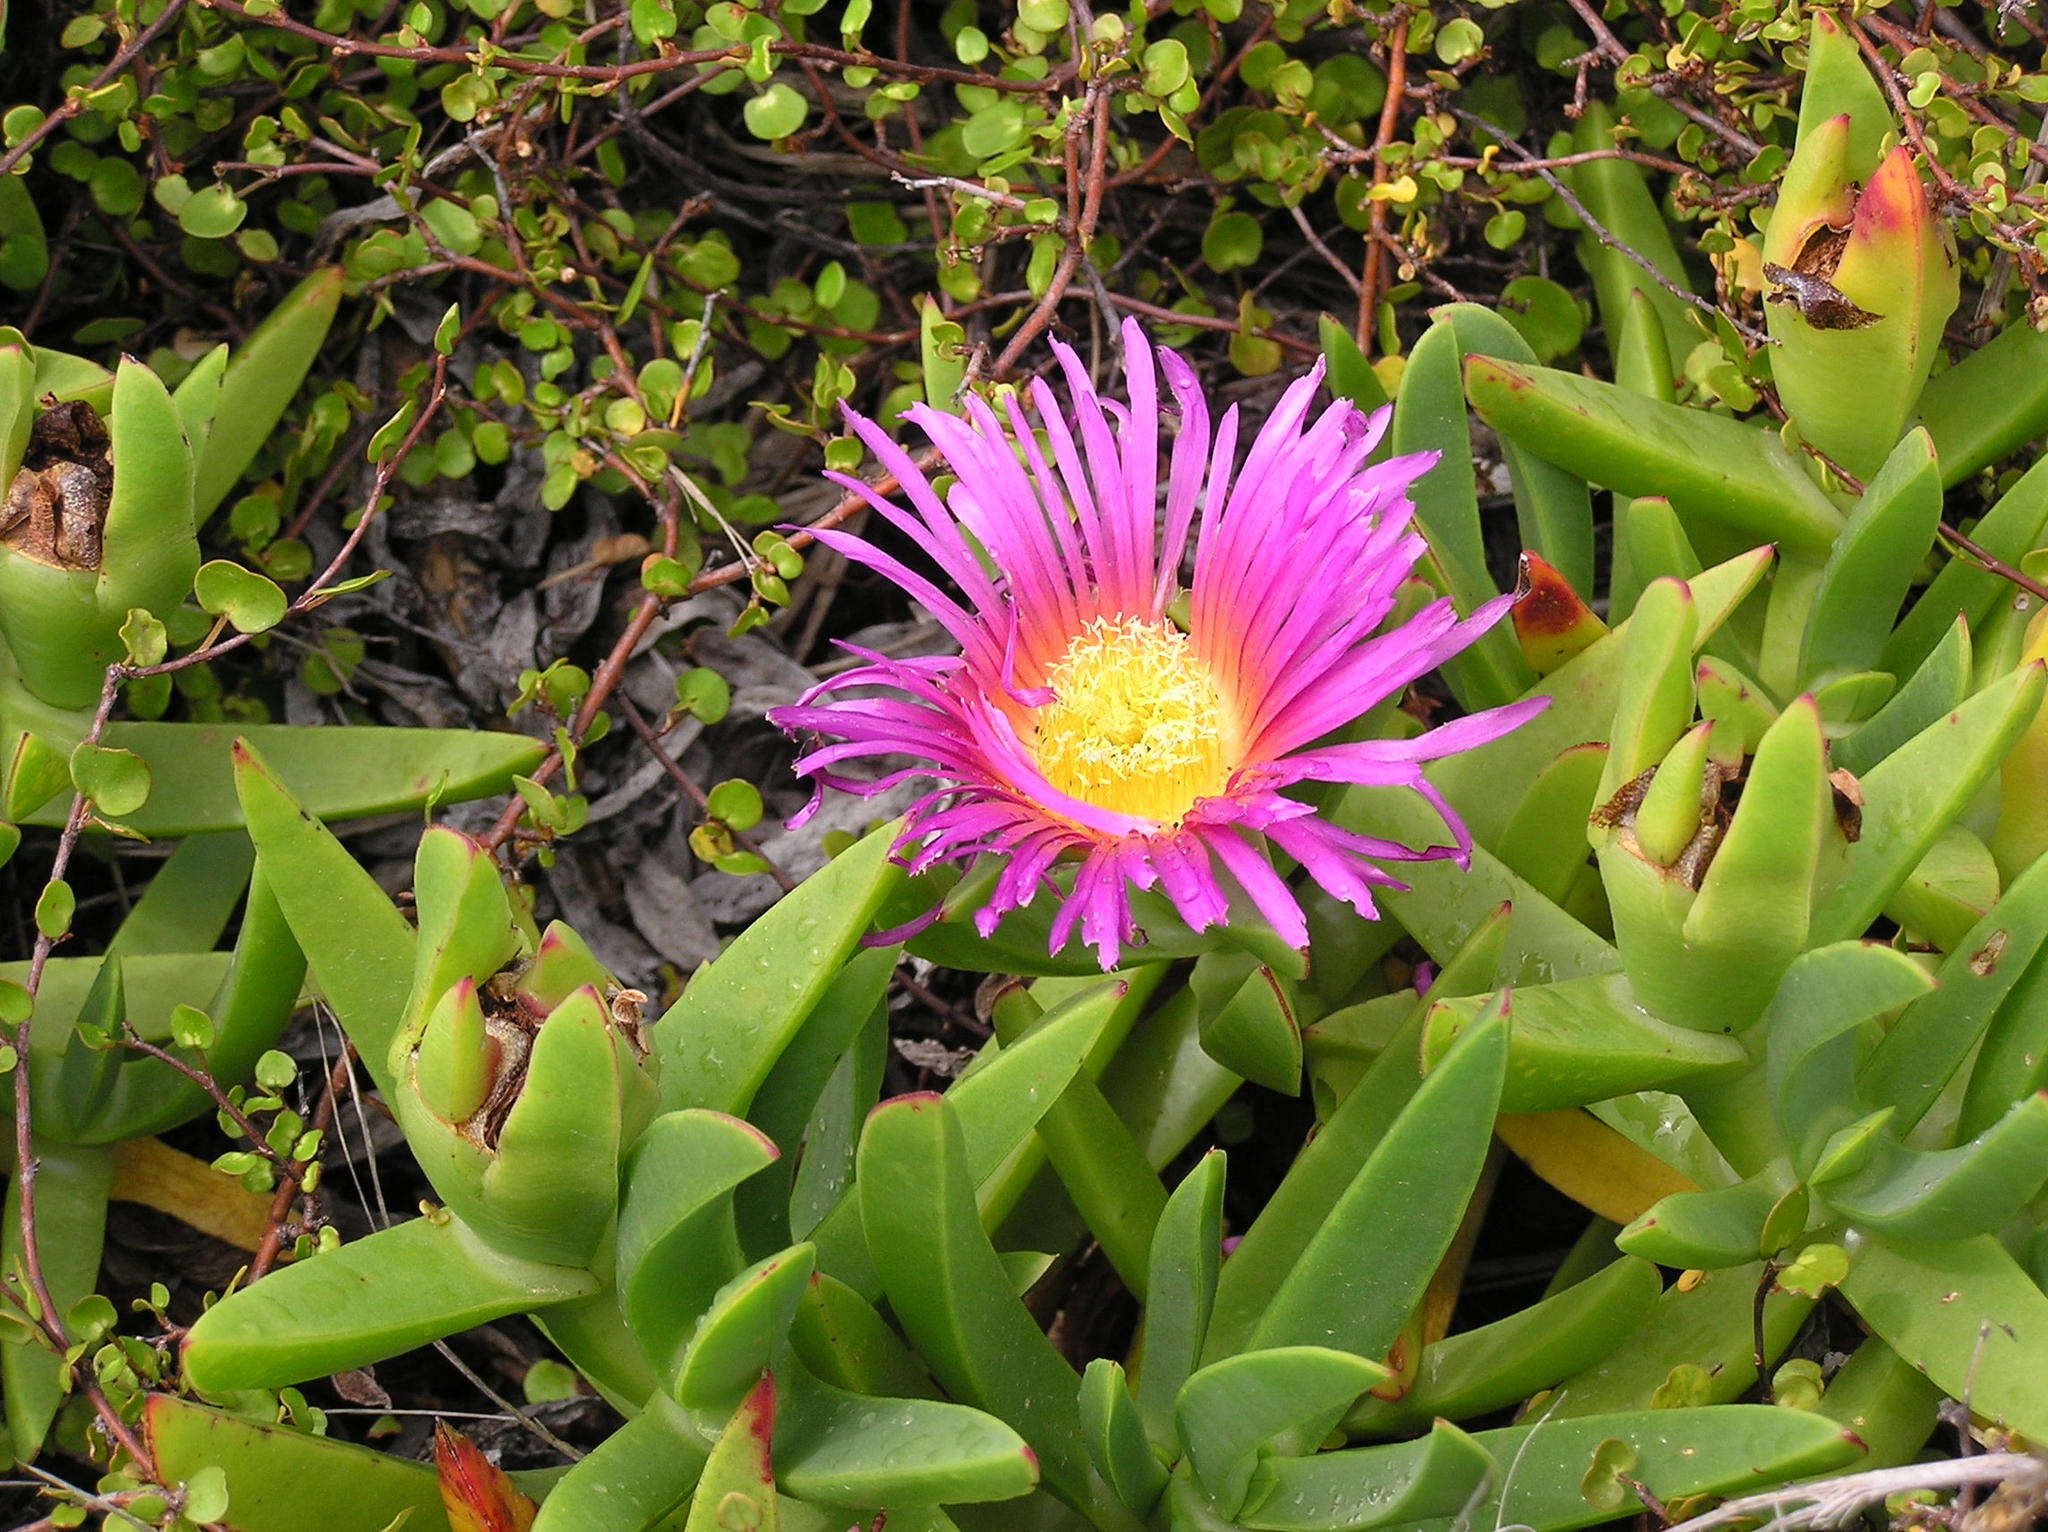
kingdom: Plantae
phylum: Tracheophyta
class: Magnoliopsida
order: Caryophyllales
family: Aizoaceae
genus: Carpobrotus
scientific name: Carpobrotus glaucescens
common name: Angular sea-fig
